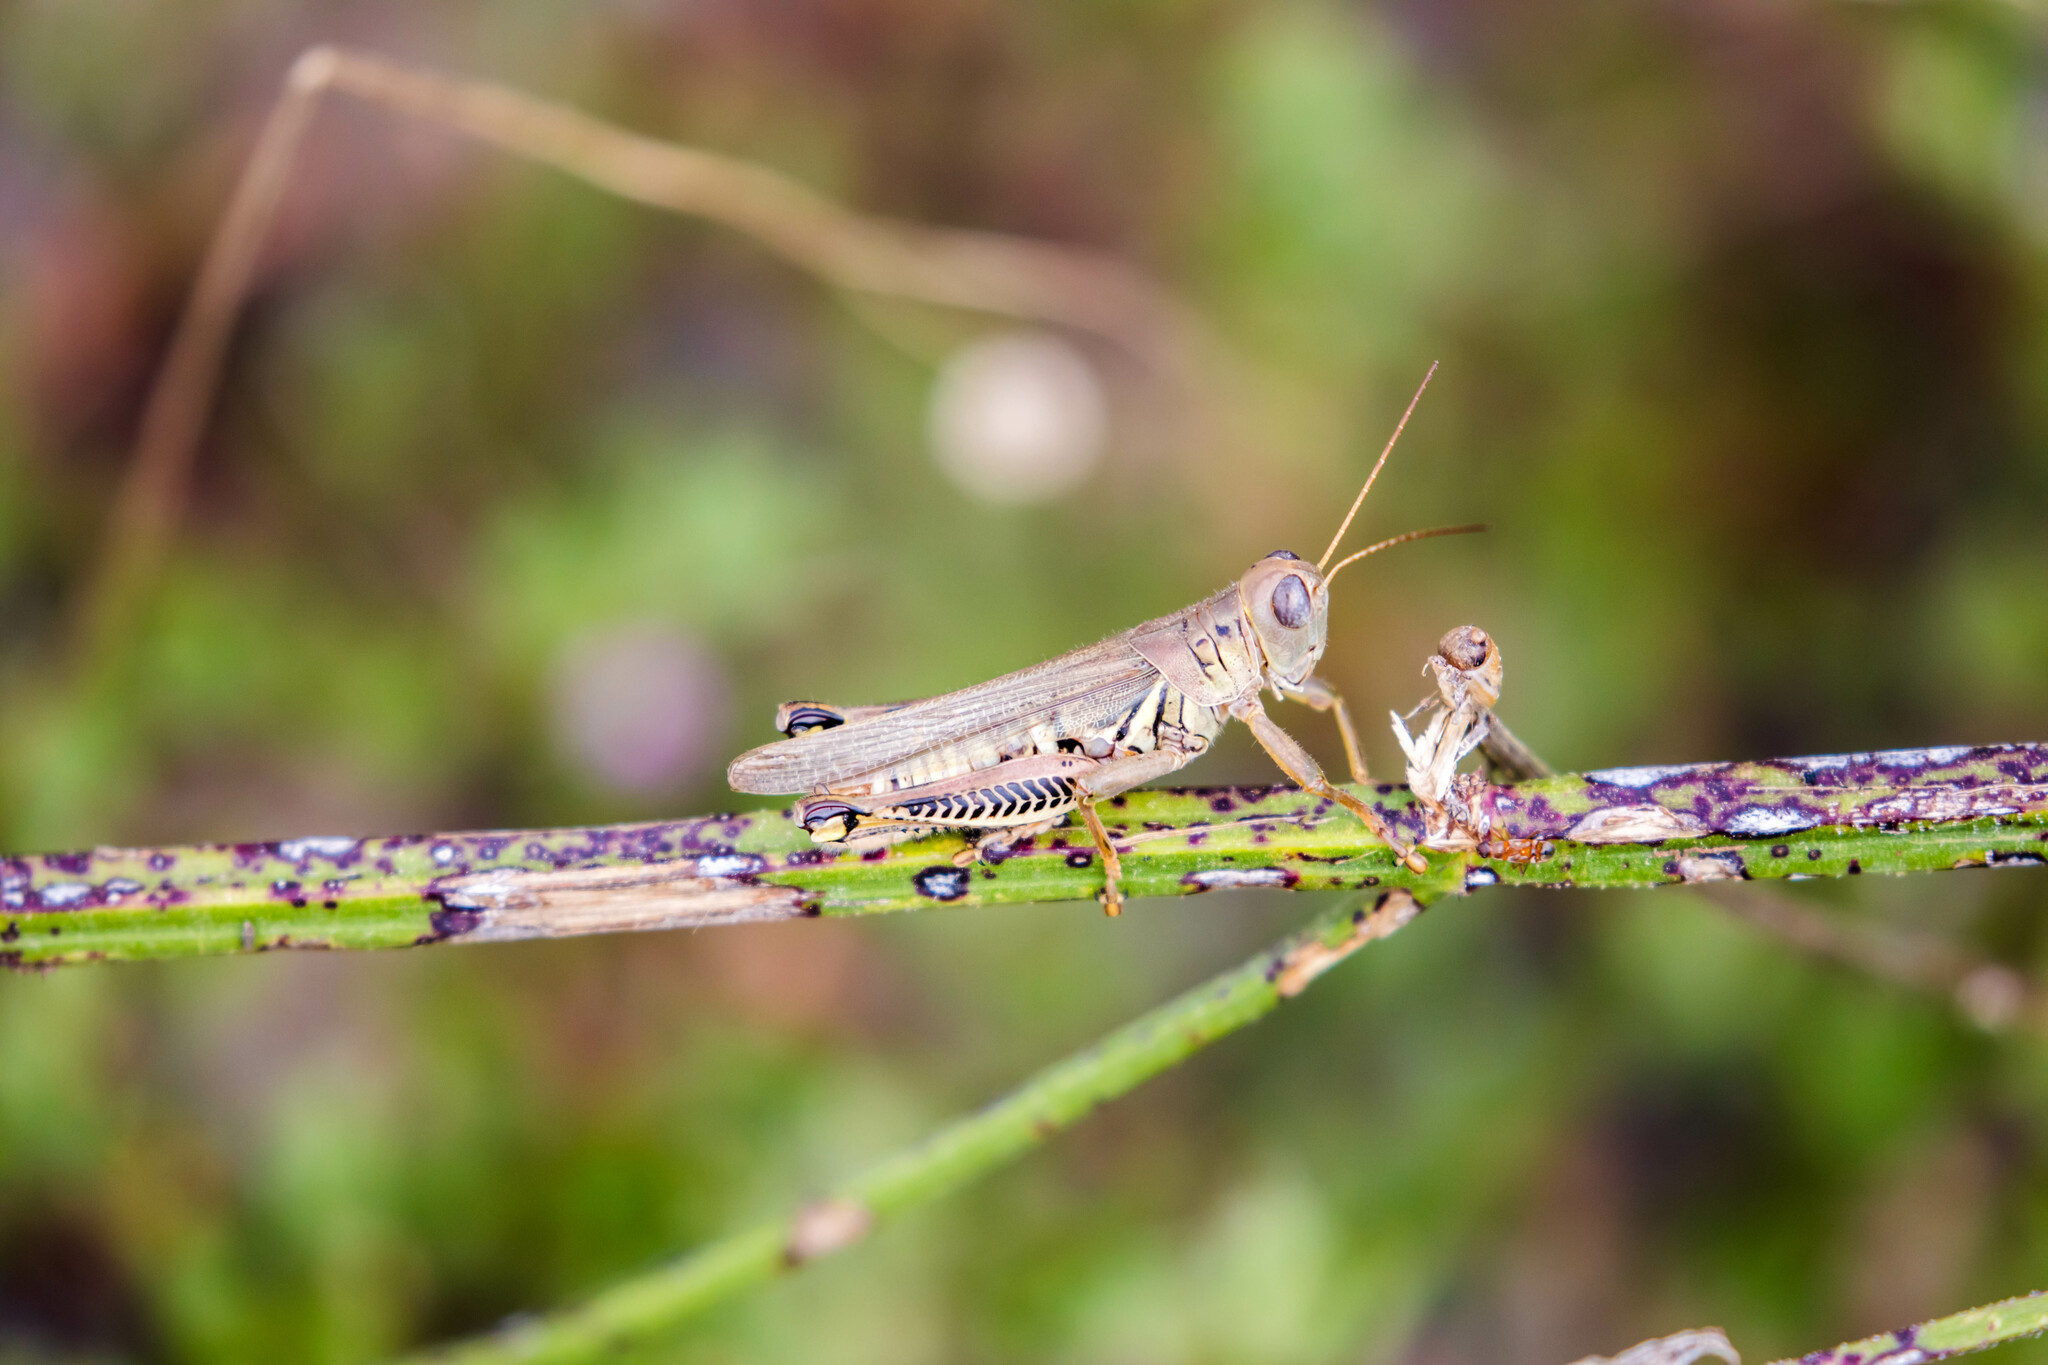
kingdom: Animalia
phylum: Arthropoda
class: Insecta
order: Orthoptera
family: Acrididae
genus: Melanoplus
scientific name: Melanoplus differentialis
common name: Differential grasshopper
